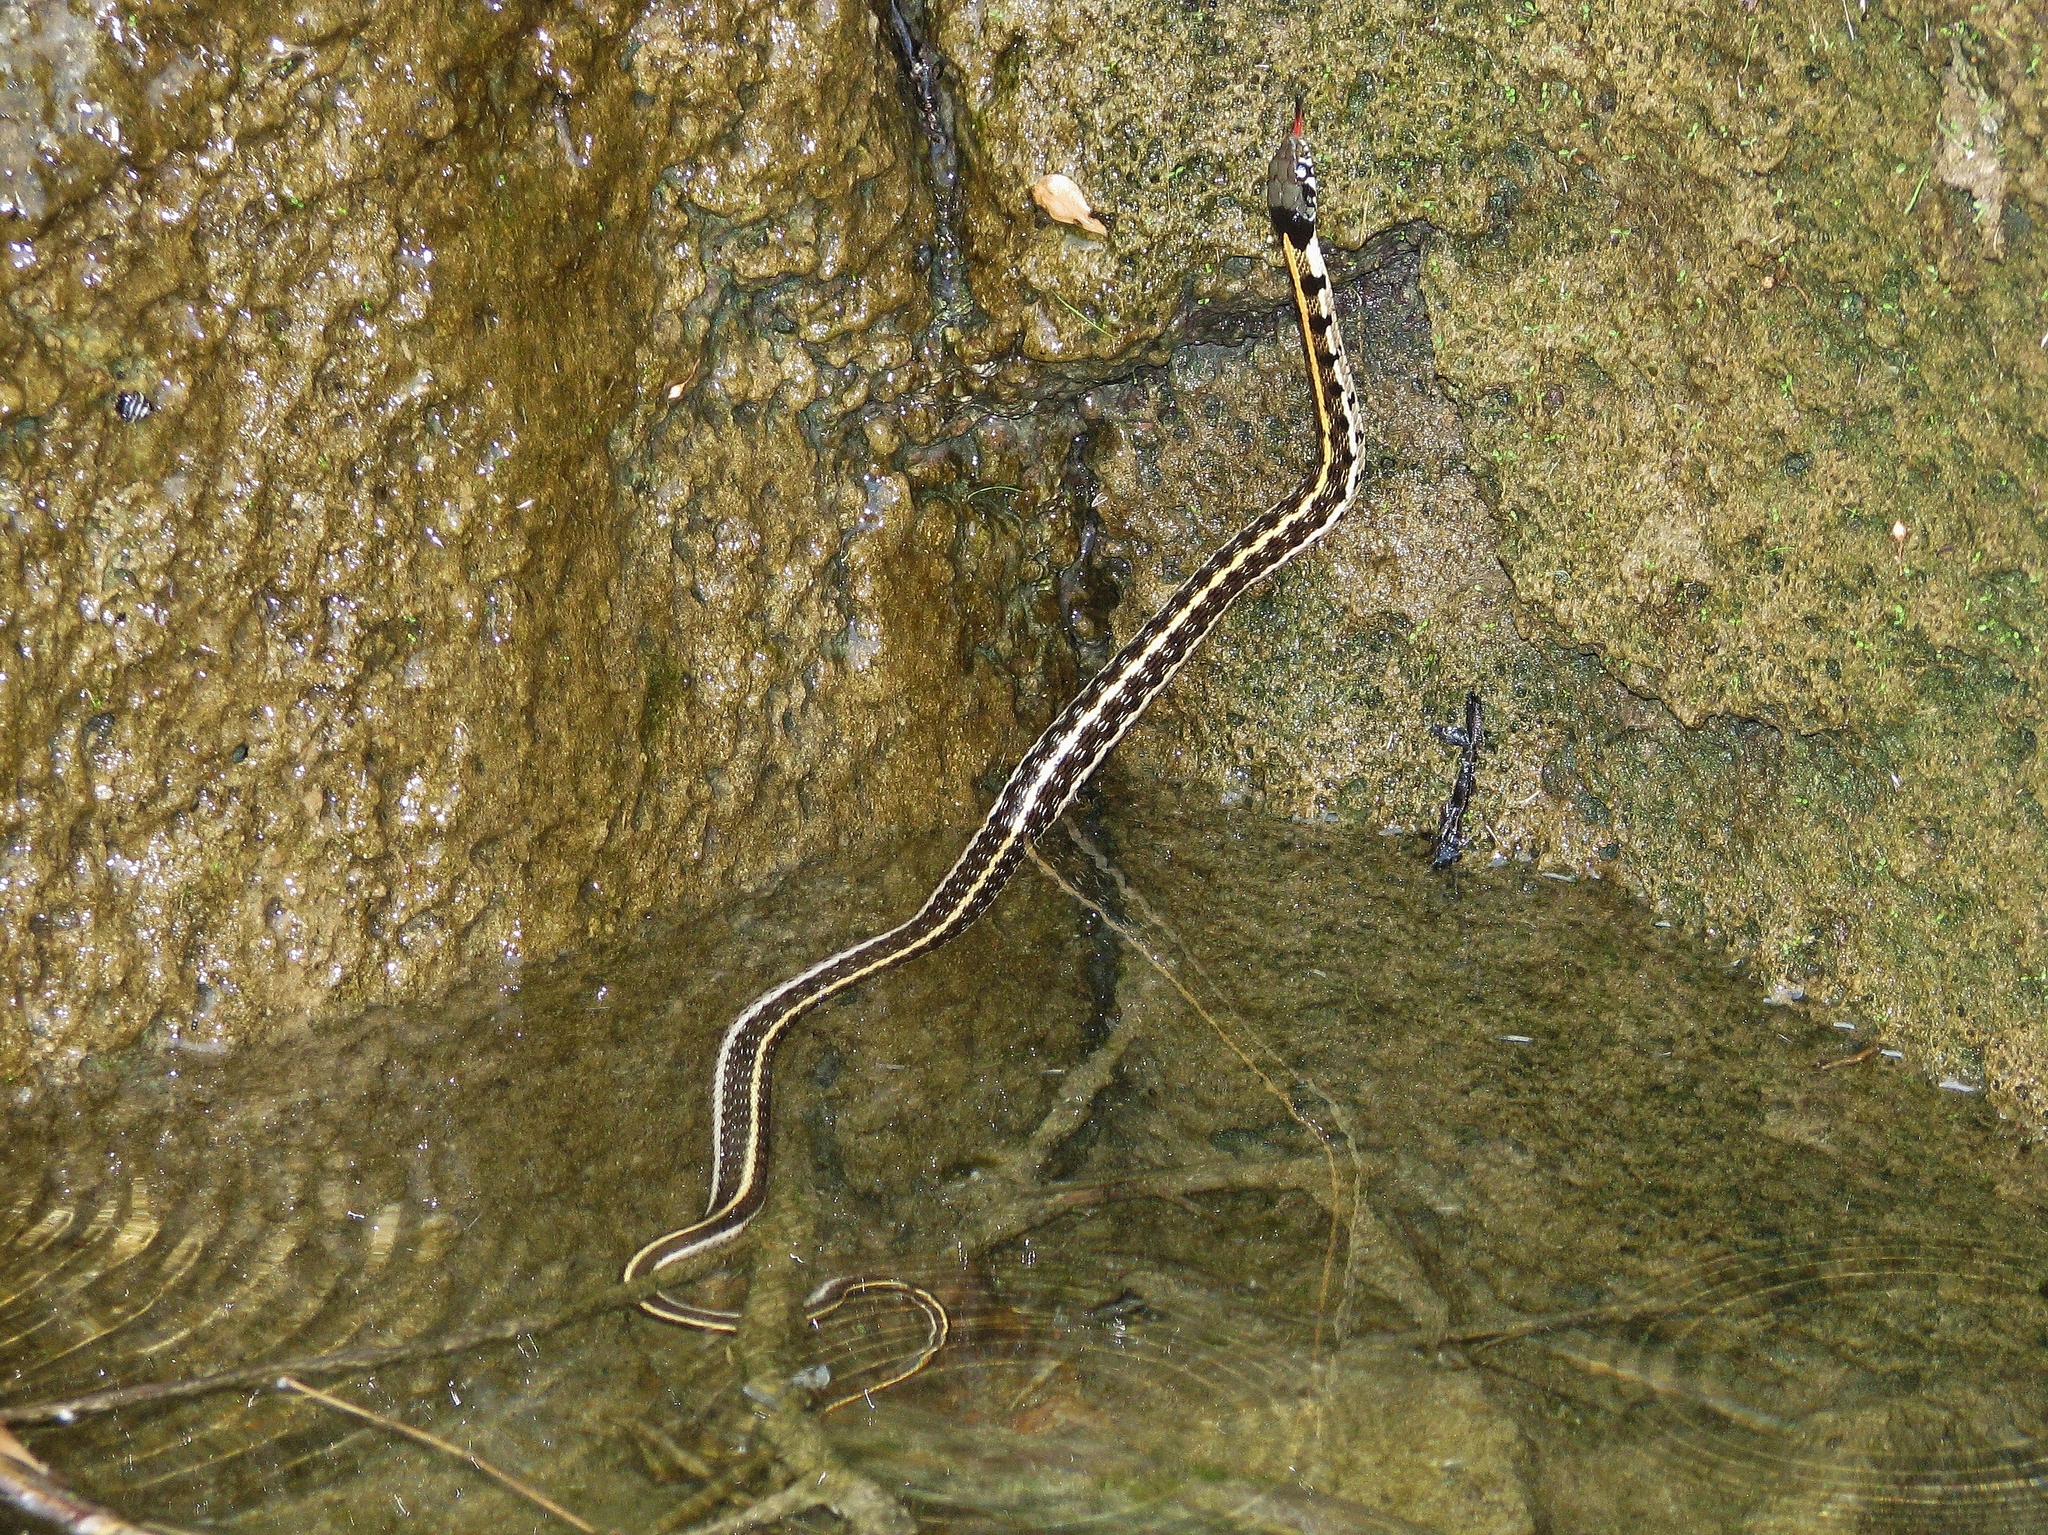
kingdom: Animalia
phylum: Chordata
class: Squamata
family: Colubridae
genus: Thamnophis
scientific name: Thamnophis cyrtopsis
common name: Black-necked gartersnake
